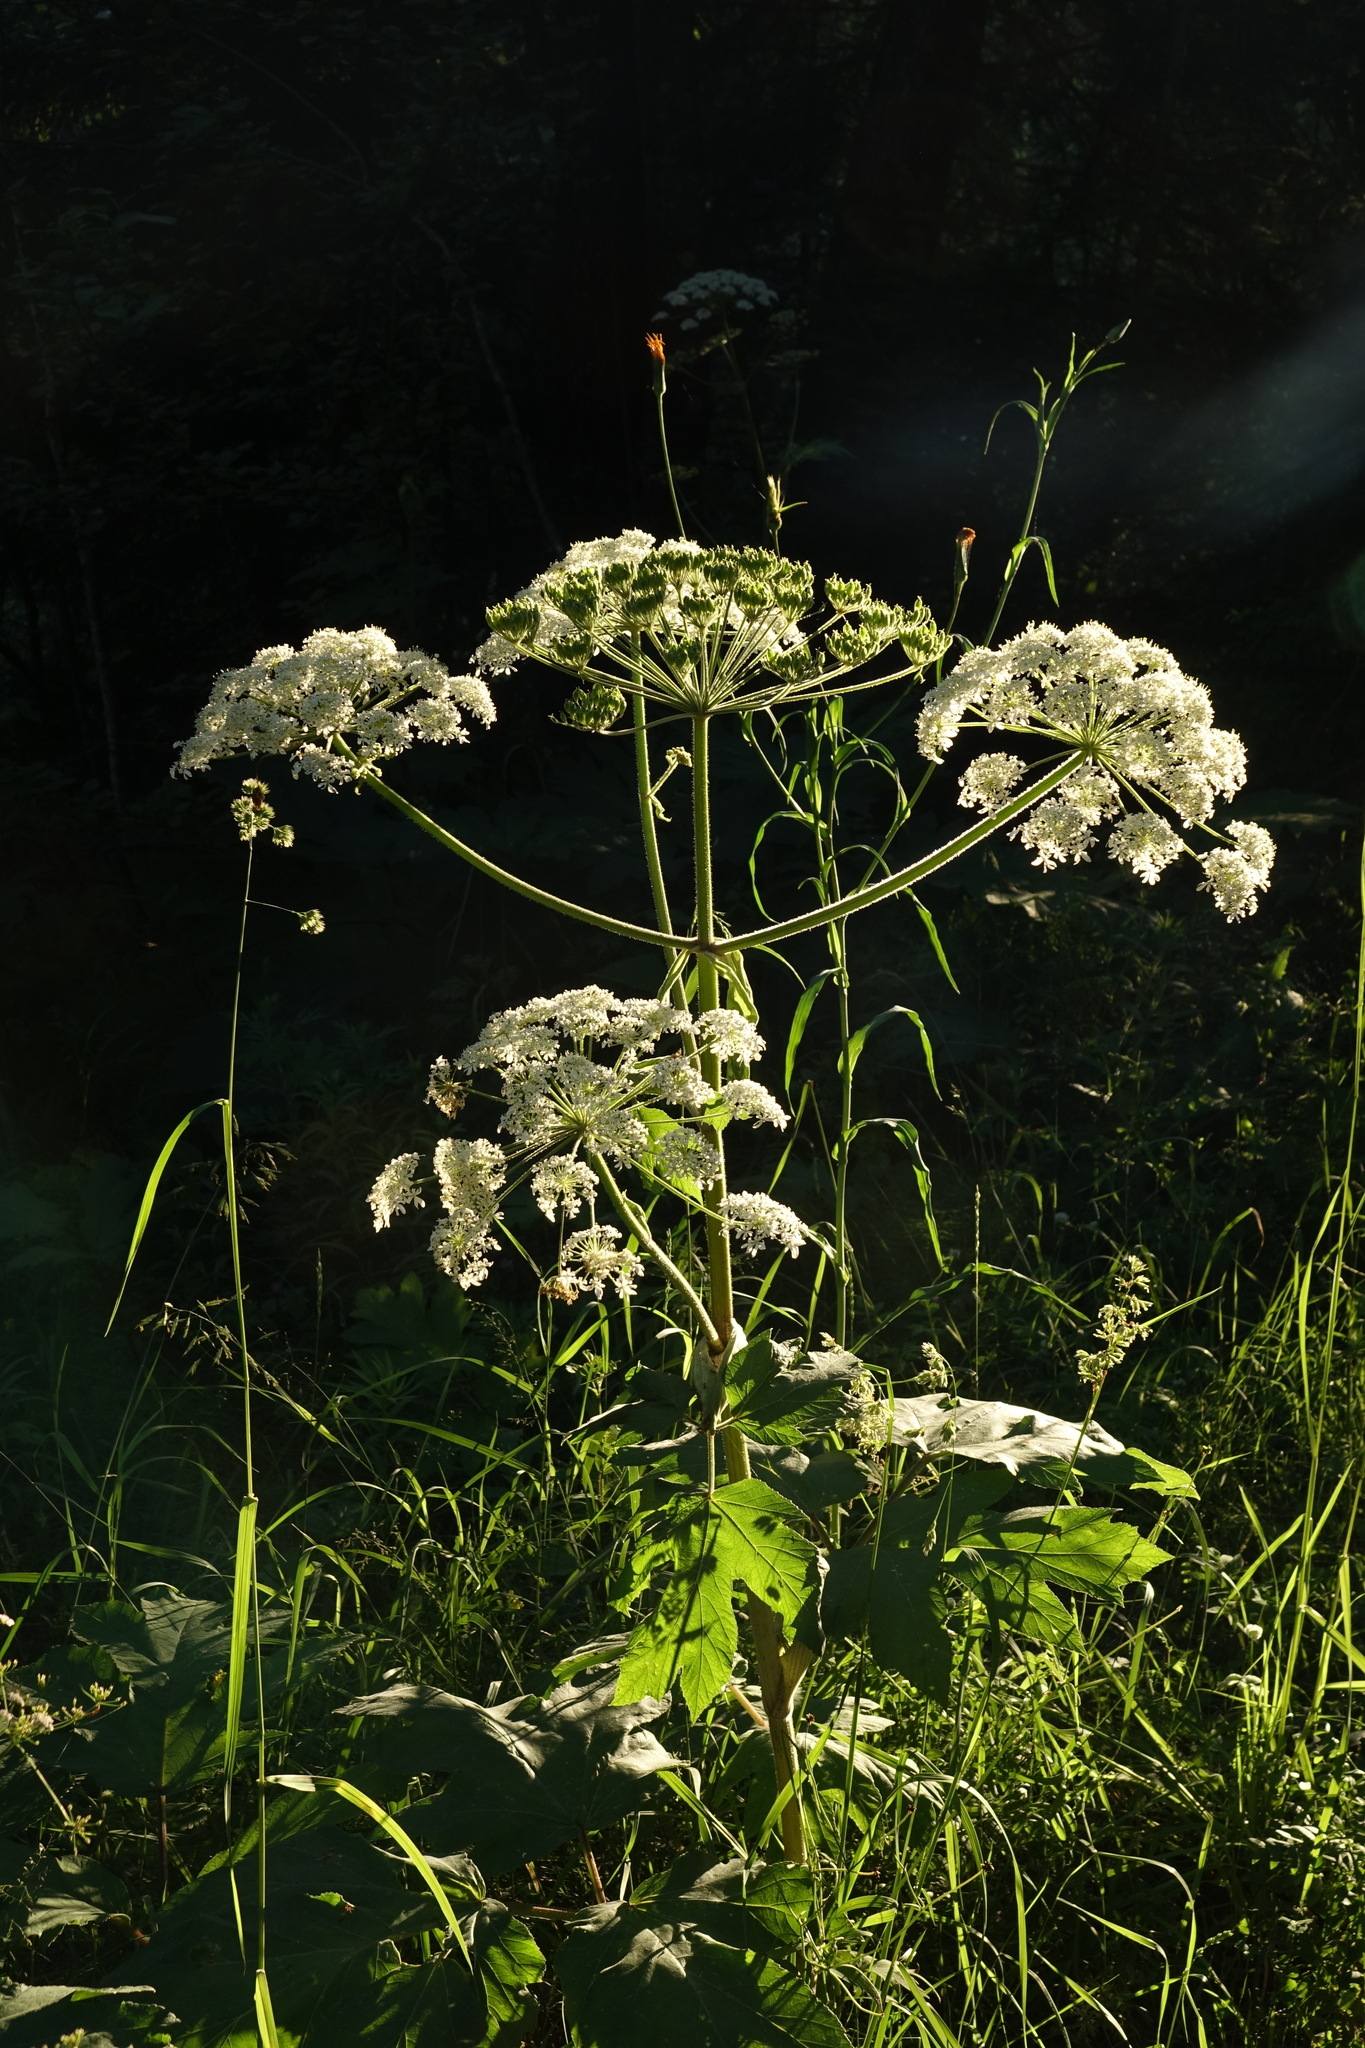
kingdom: Plantae
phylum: Tracheophyta
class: Magnoliopsida
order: Apiales
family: Apiaceae
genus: Heracleum
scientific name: Heracleum dissectum
